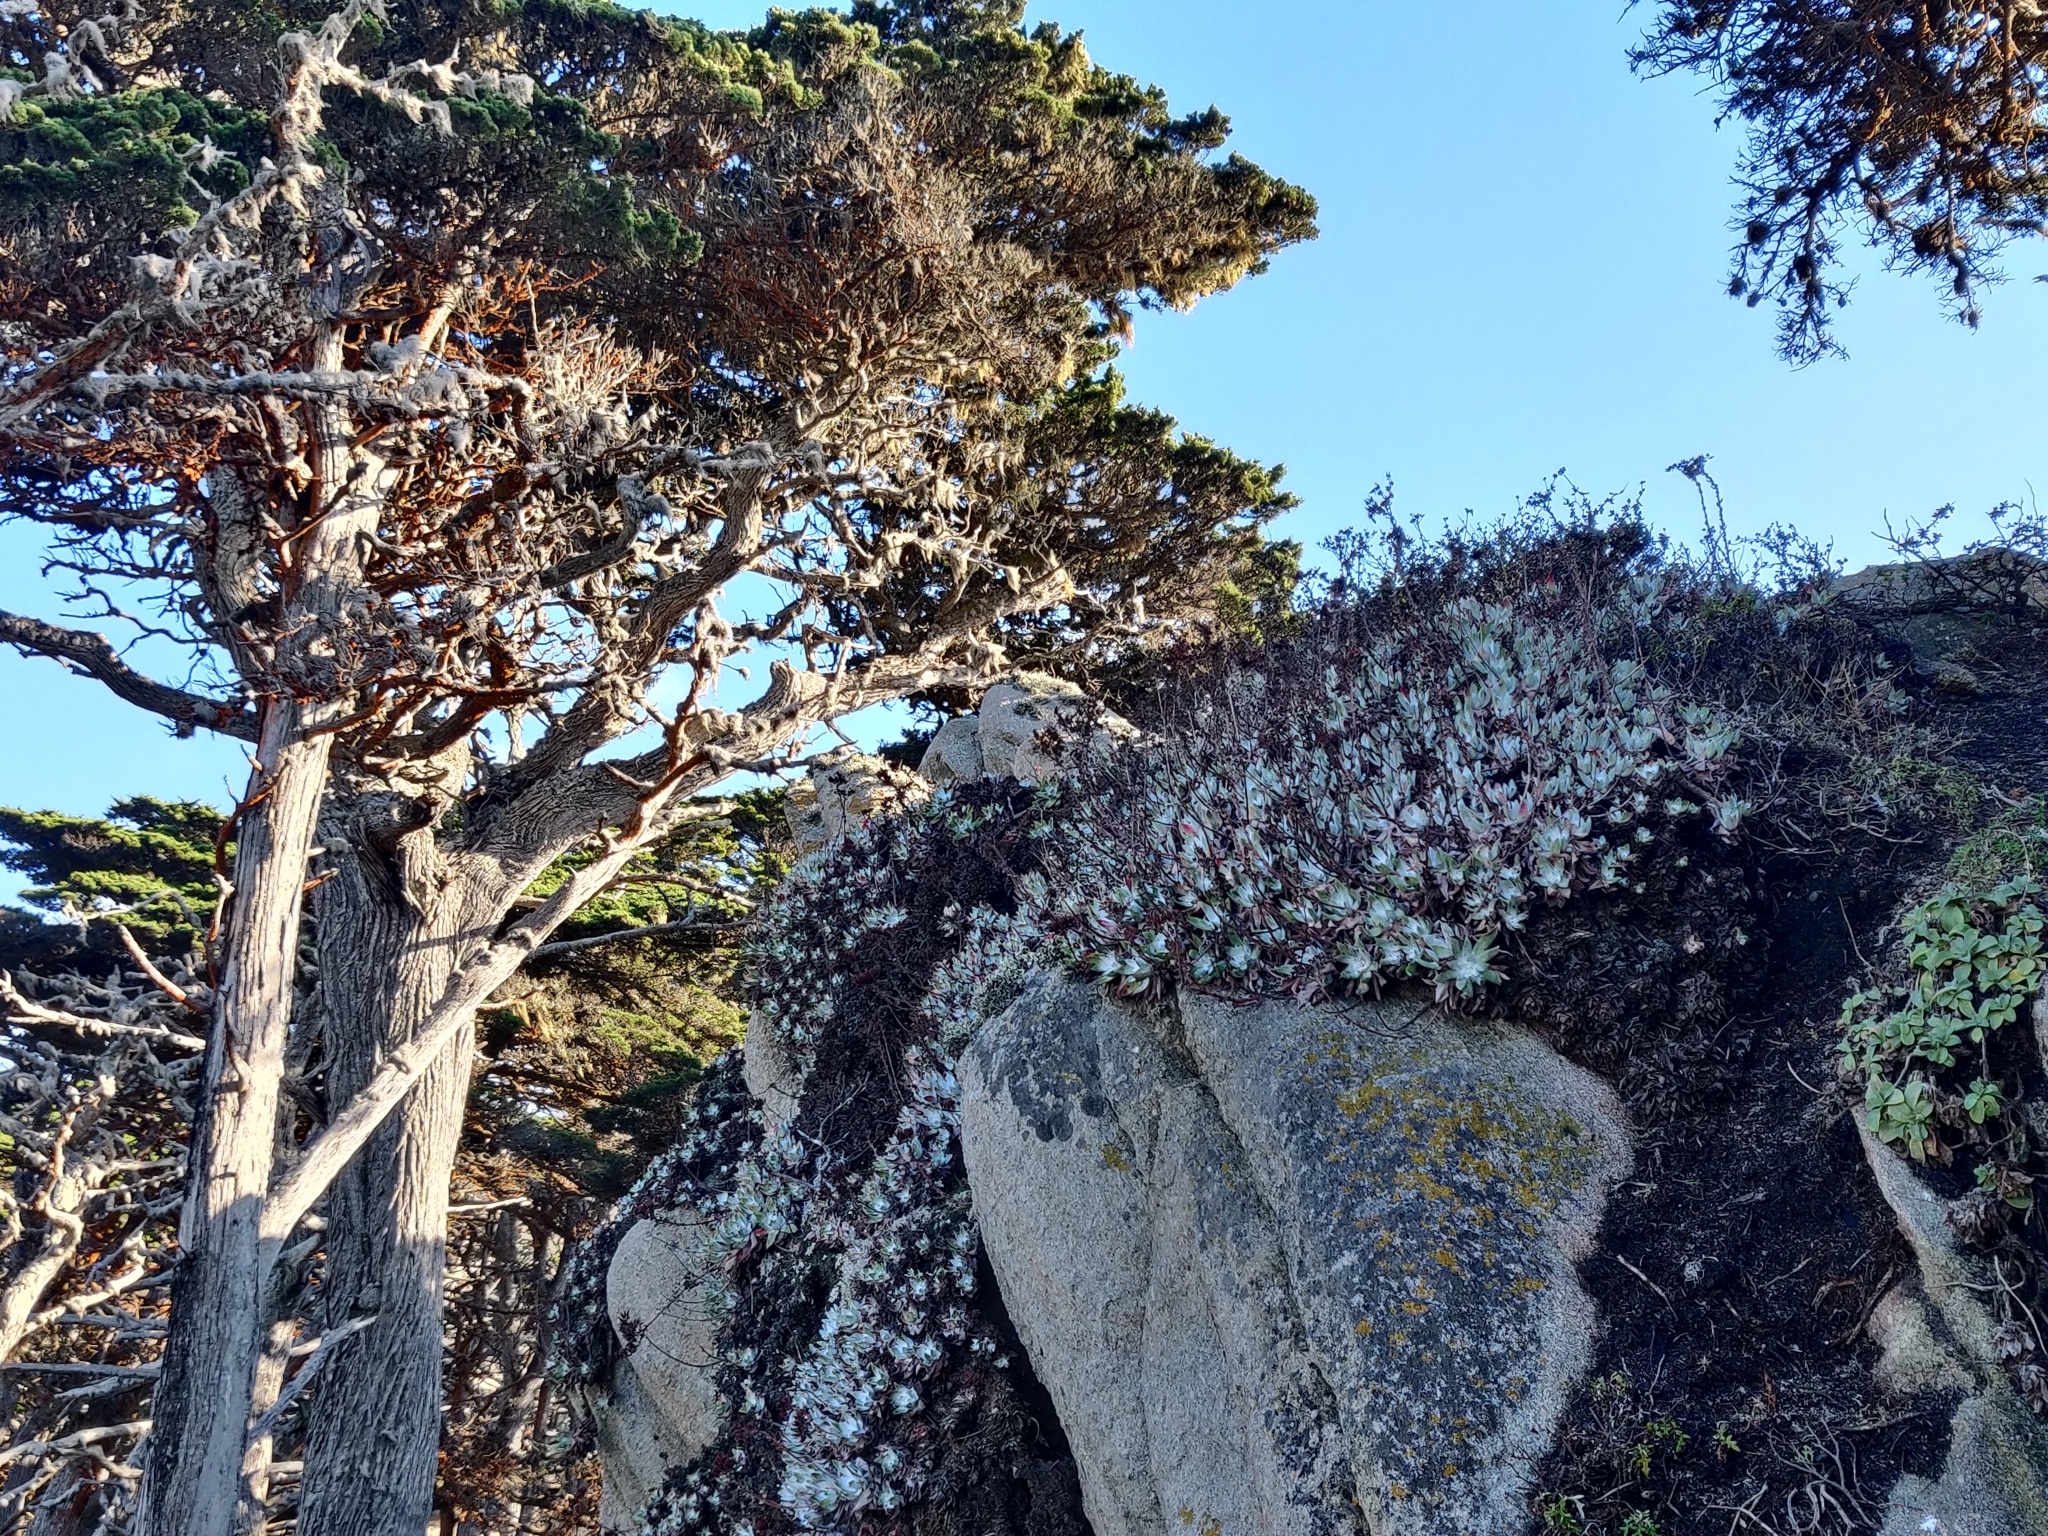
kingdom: Plantae
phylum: Tracheophyta
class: Magnoliopsida
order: Saxifragales
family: Crassulaceae
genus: Dudleya
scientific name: Dudleya farinosa
